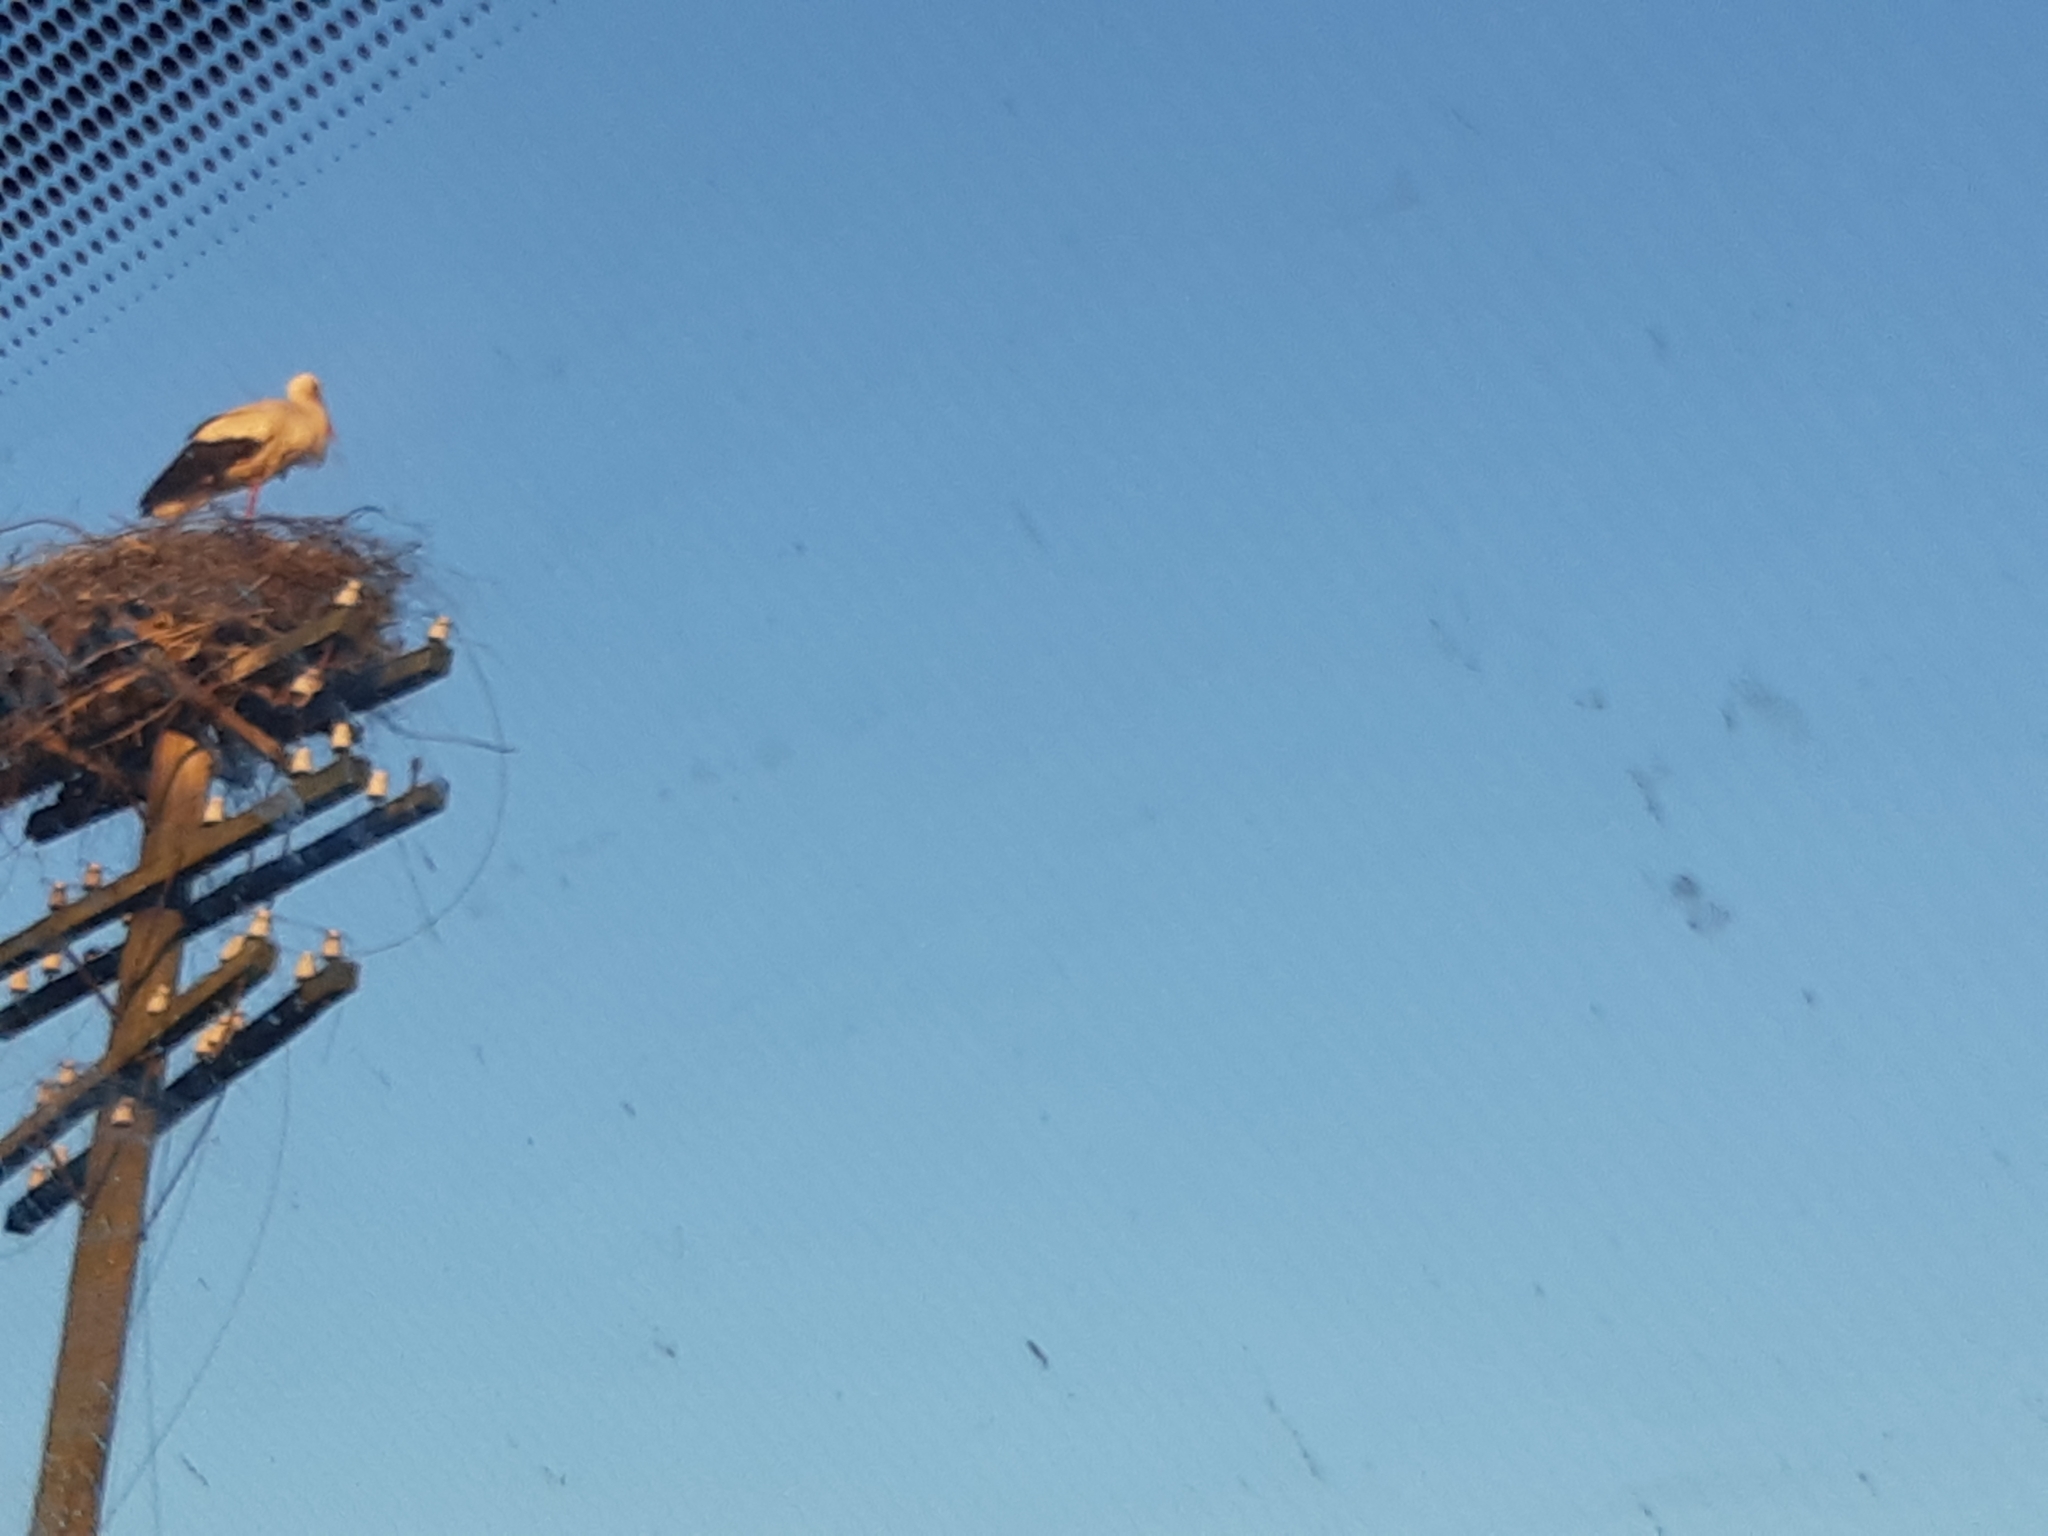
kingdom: Animalia
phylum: Chordata
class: Aves
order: Ciconiiformes
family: Ciconiidae
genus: Ciconia
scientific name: Ciconia ciconia
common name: White stork
